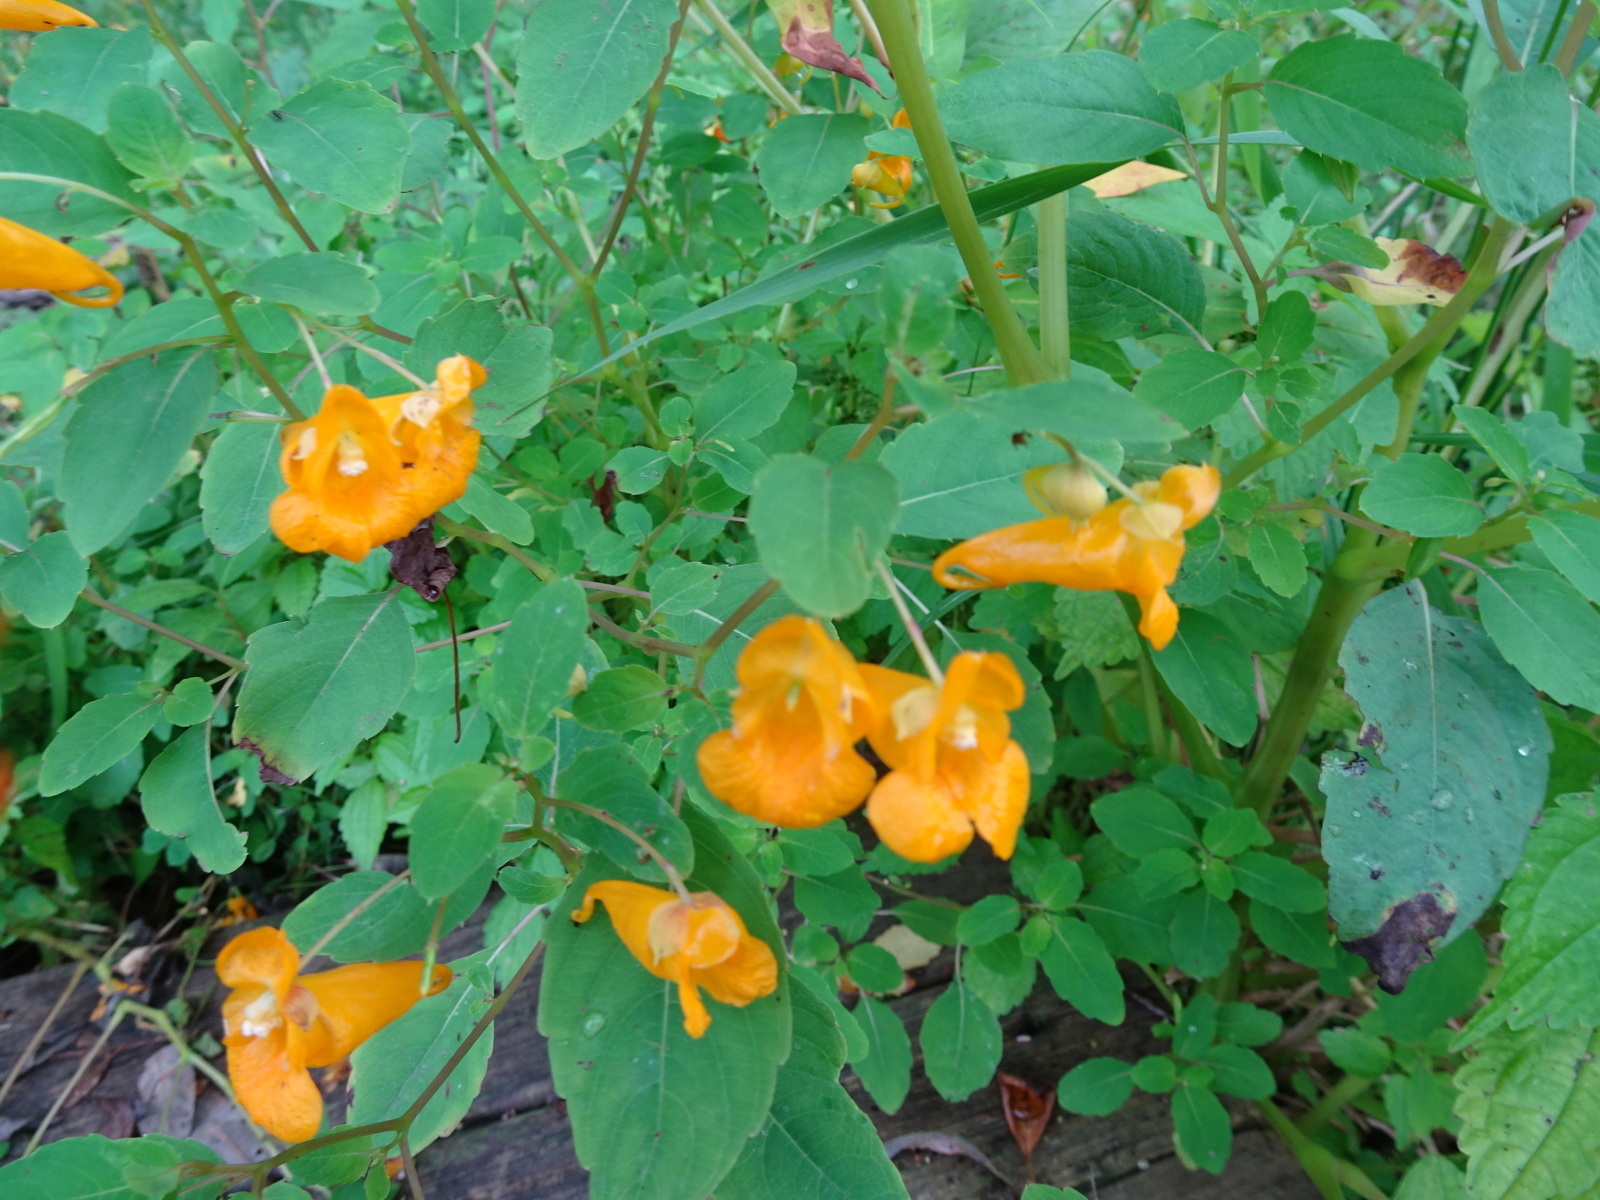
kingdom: Plantae
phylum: Tracheophyta
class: Magnoliopsida
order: Ericales
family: Balsaminaceae
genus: Impatiens
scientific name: Impatiens capensis
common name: Orange balsam
